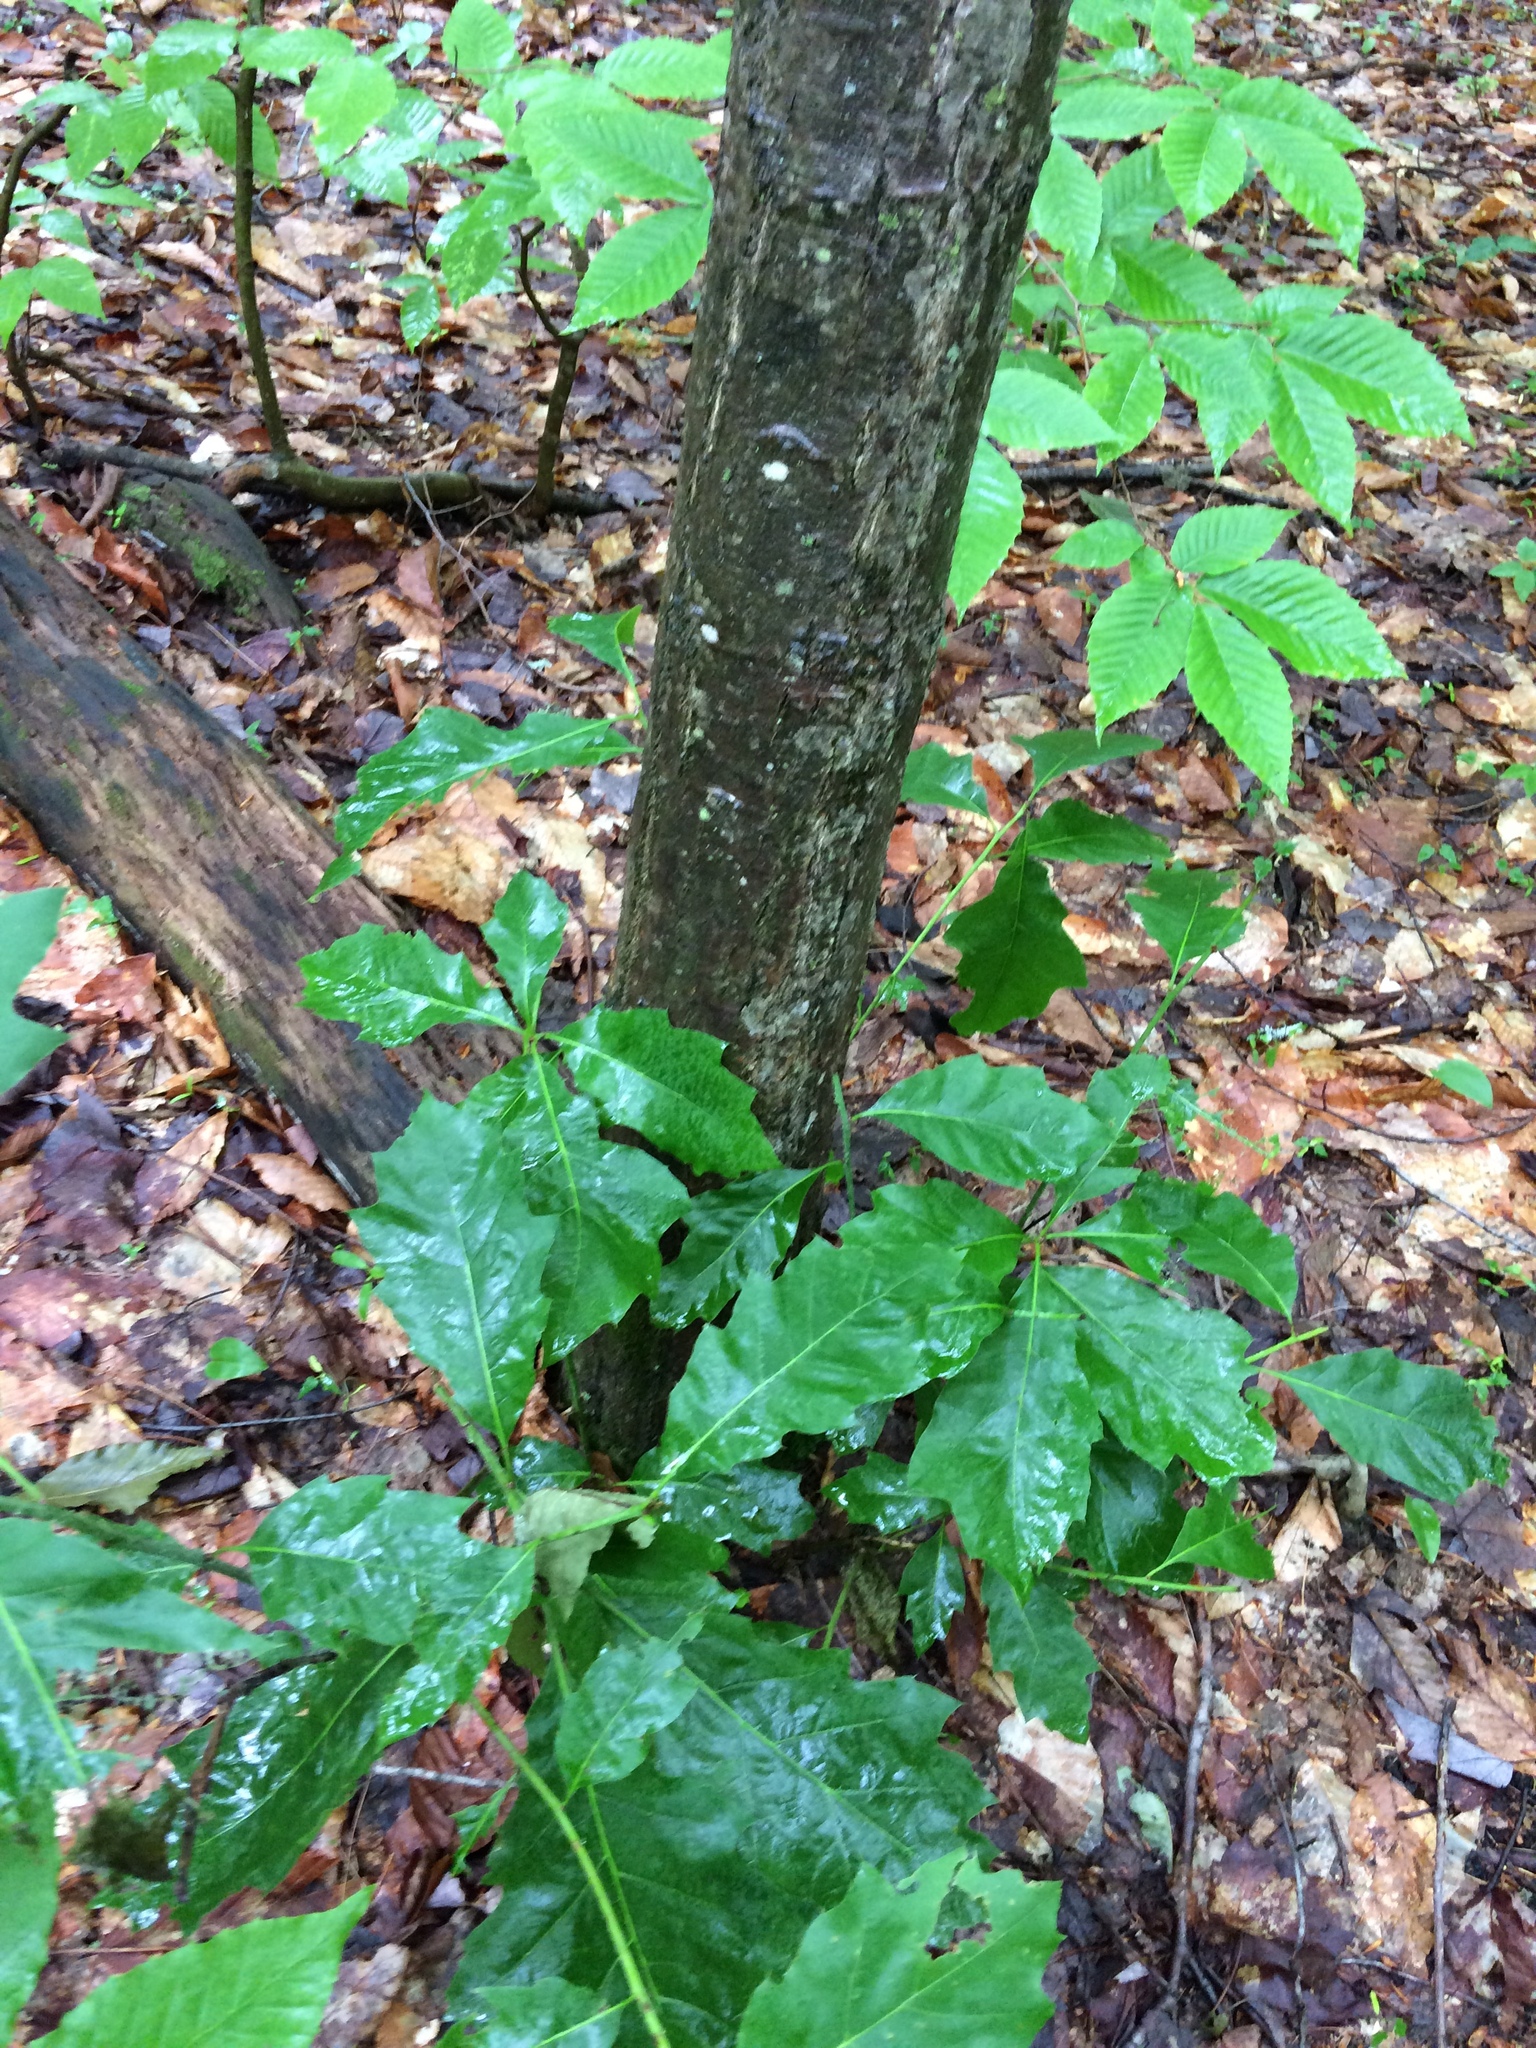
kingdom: Plantae
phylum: Tracheophyta
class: Magnoliopsida
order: Fagales
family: Fagaceae
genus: Quercus
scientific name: Quercus rubra
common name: Red oak
